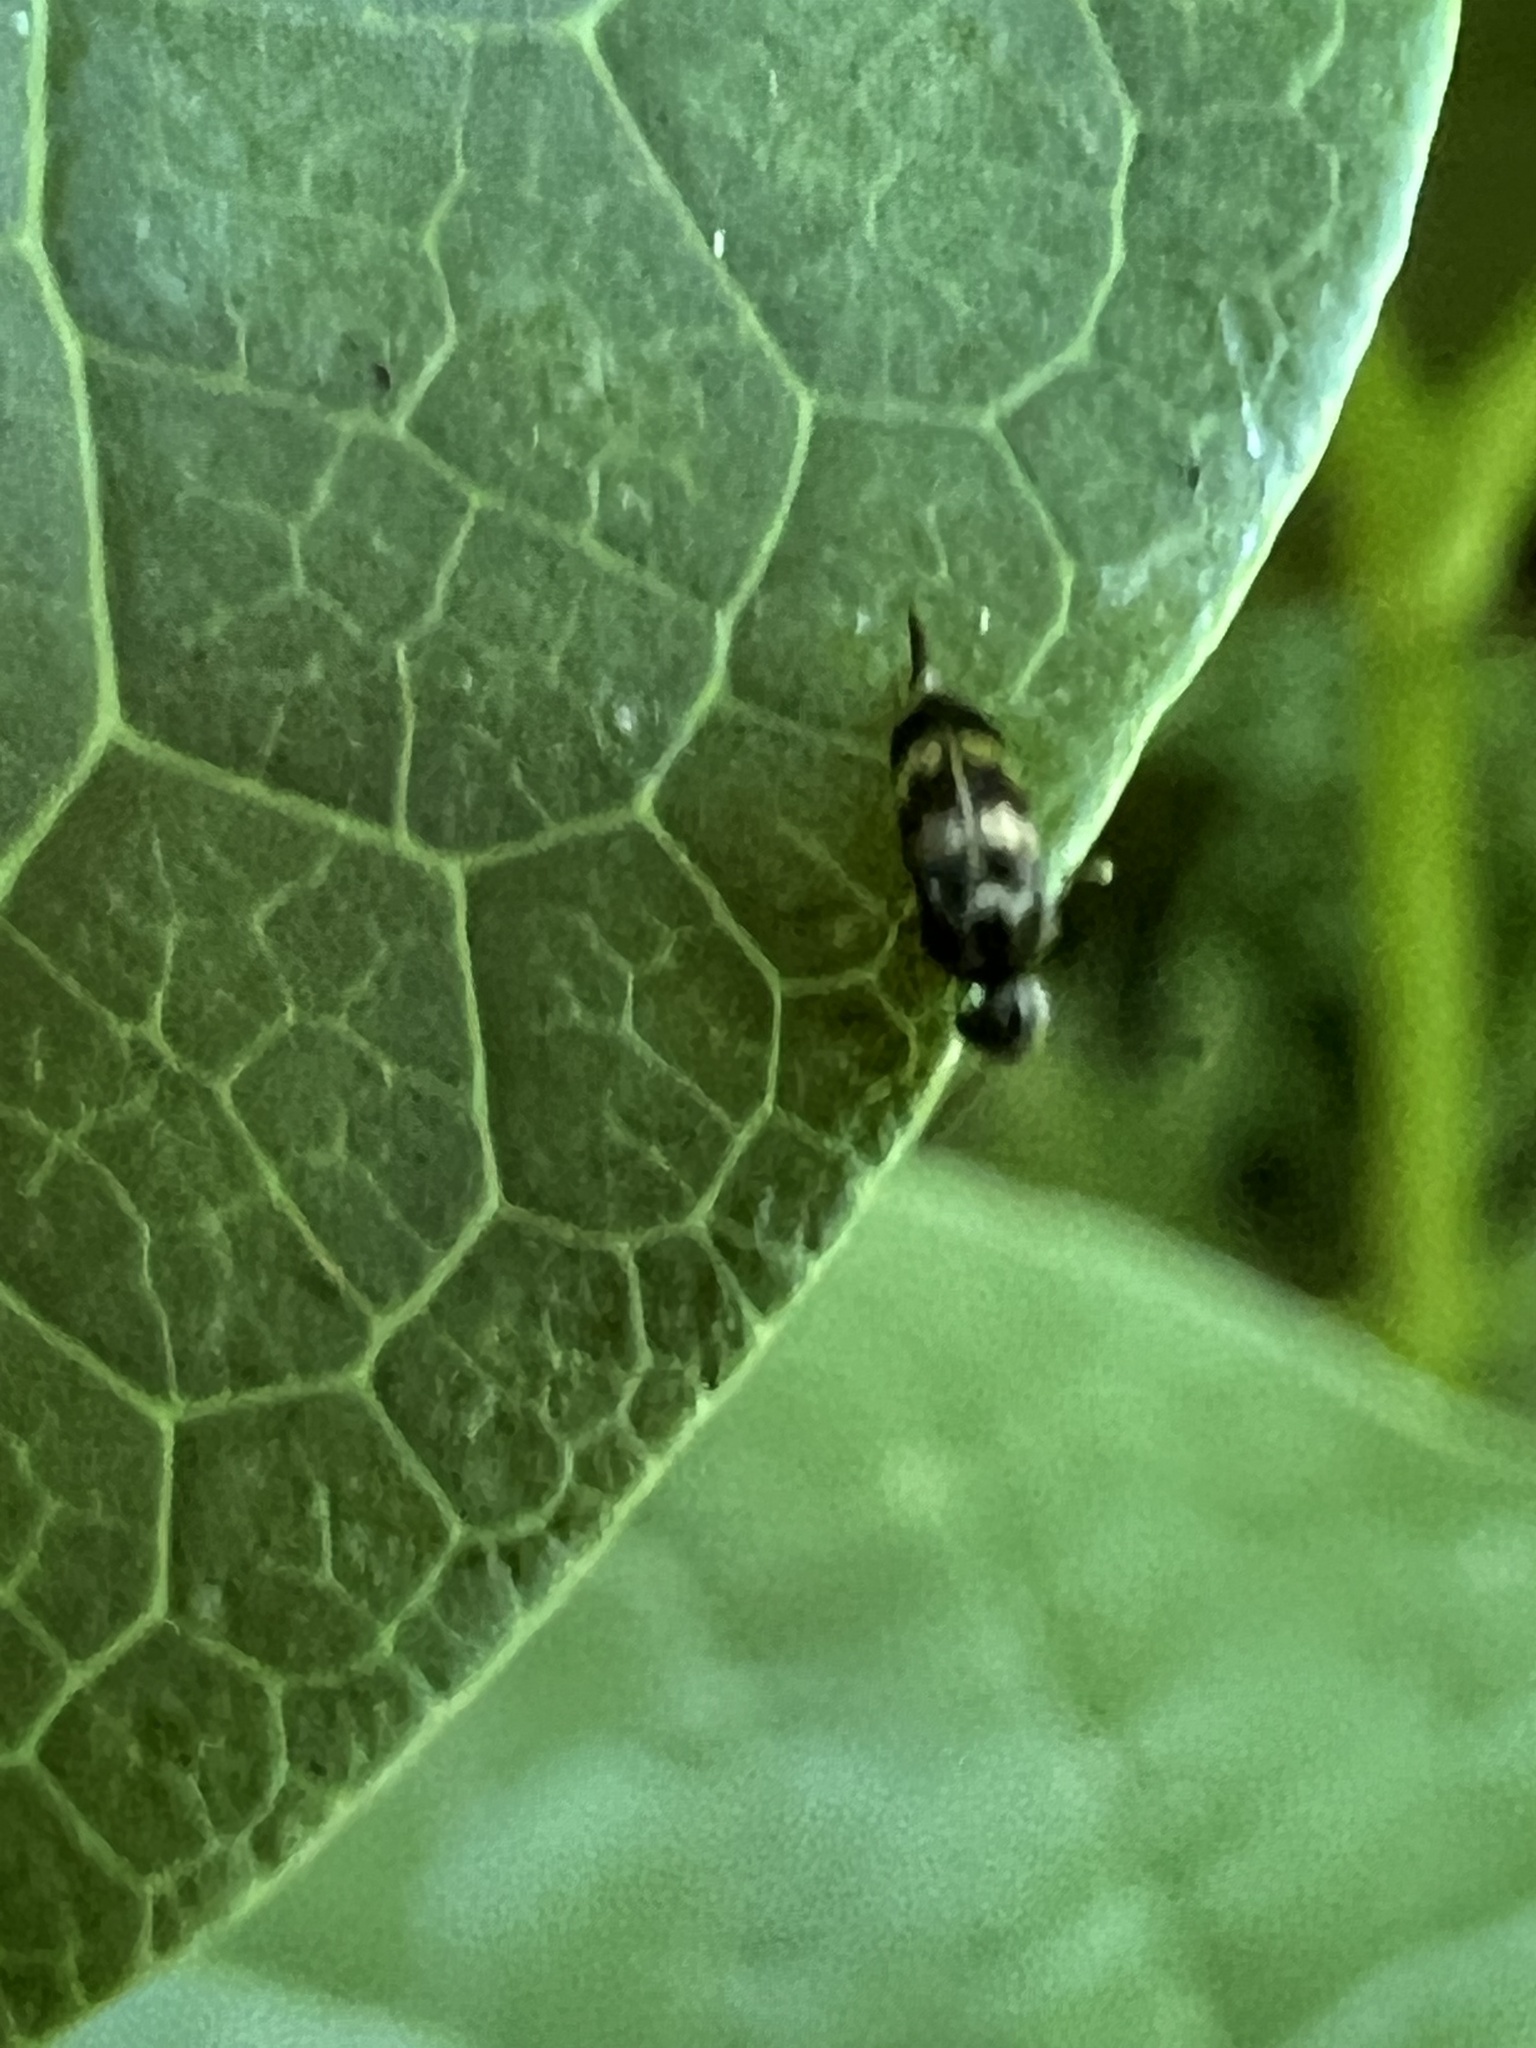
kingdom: Animalia
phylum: Arthropoda
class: Insecta
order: Coleoptera
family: Mordellidae
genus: Falsomordellistena
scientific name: Falsomordellistena pubescens
